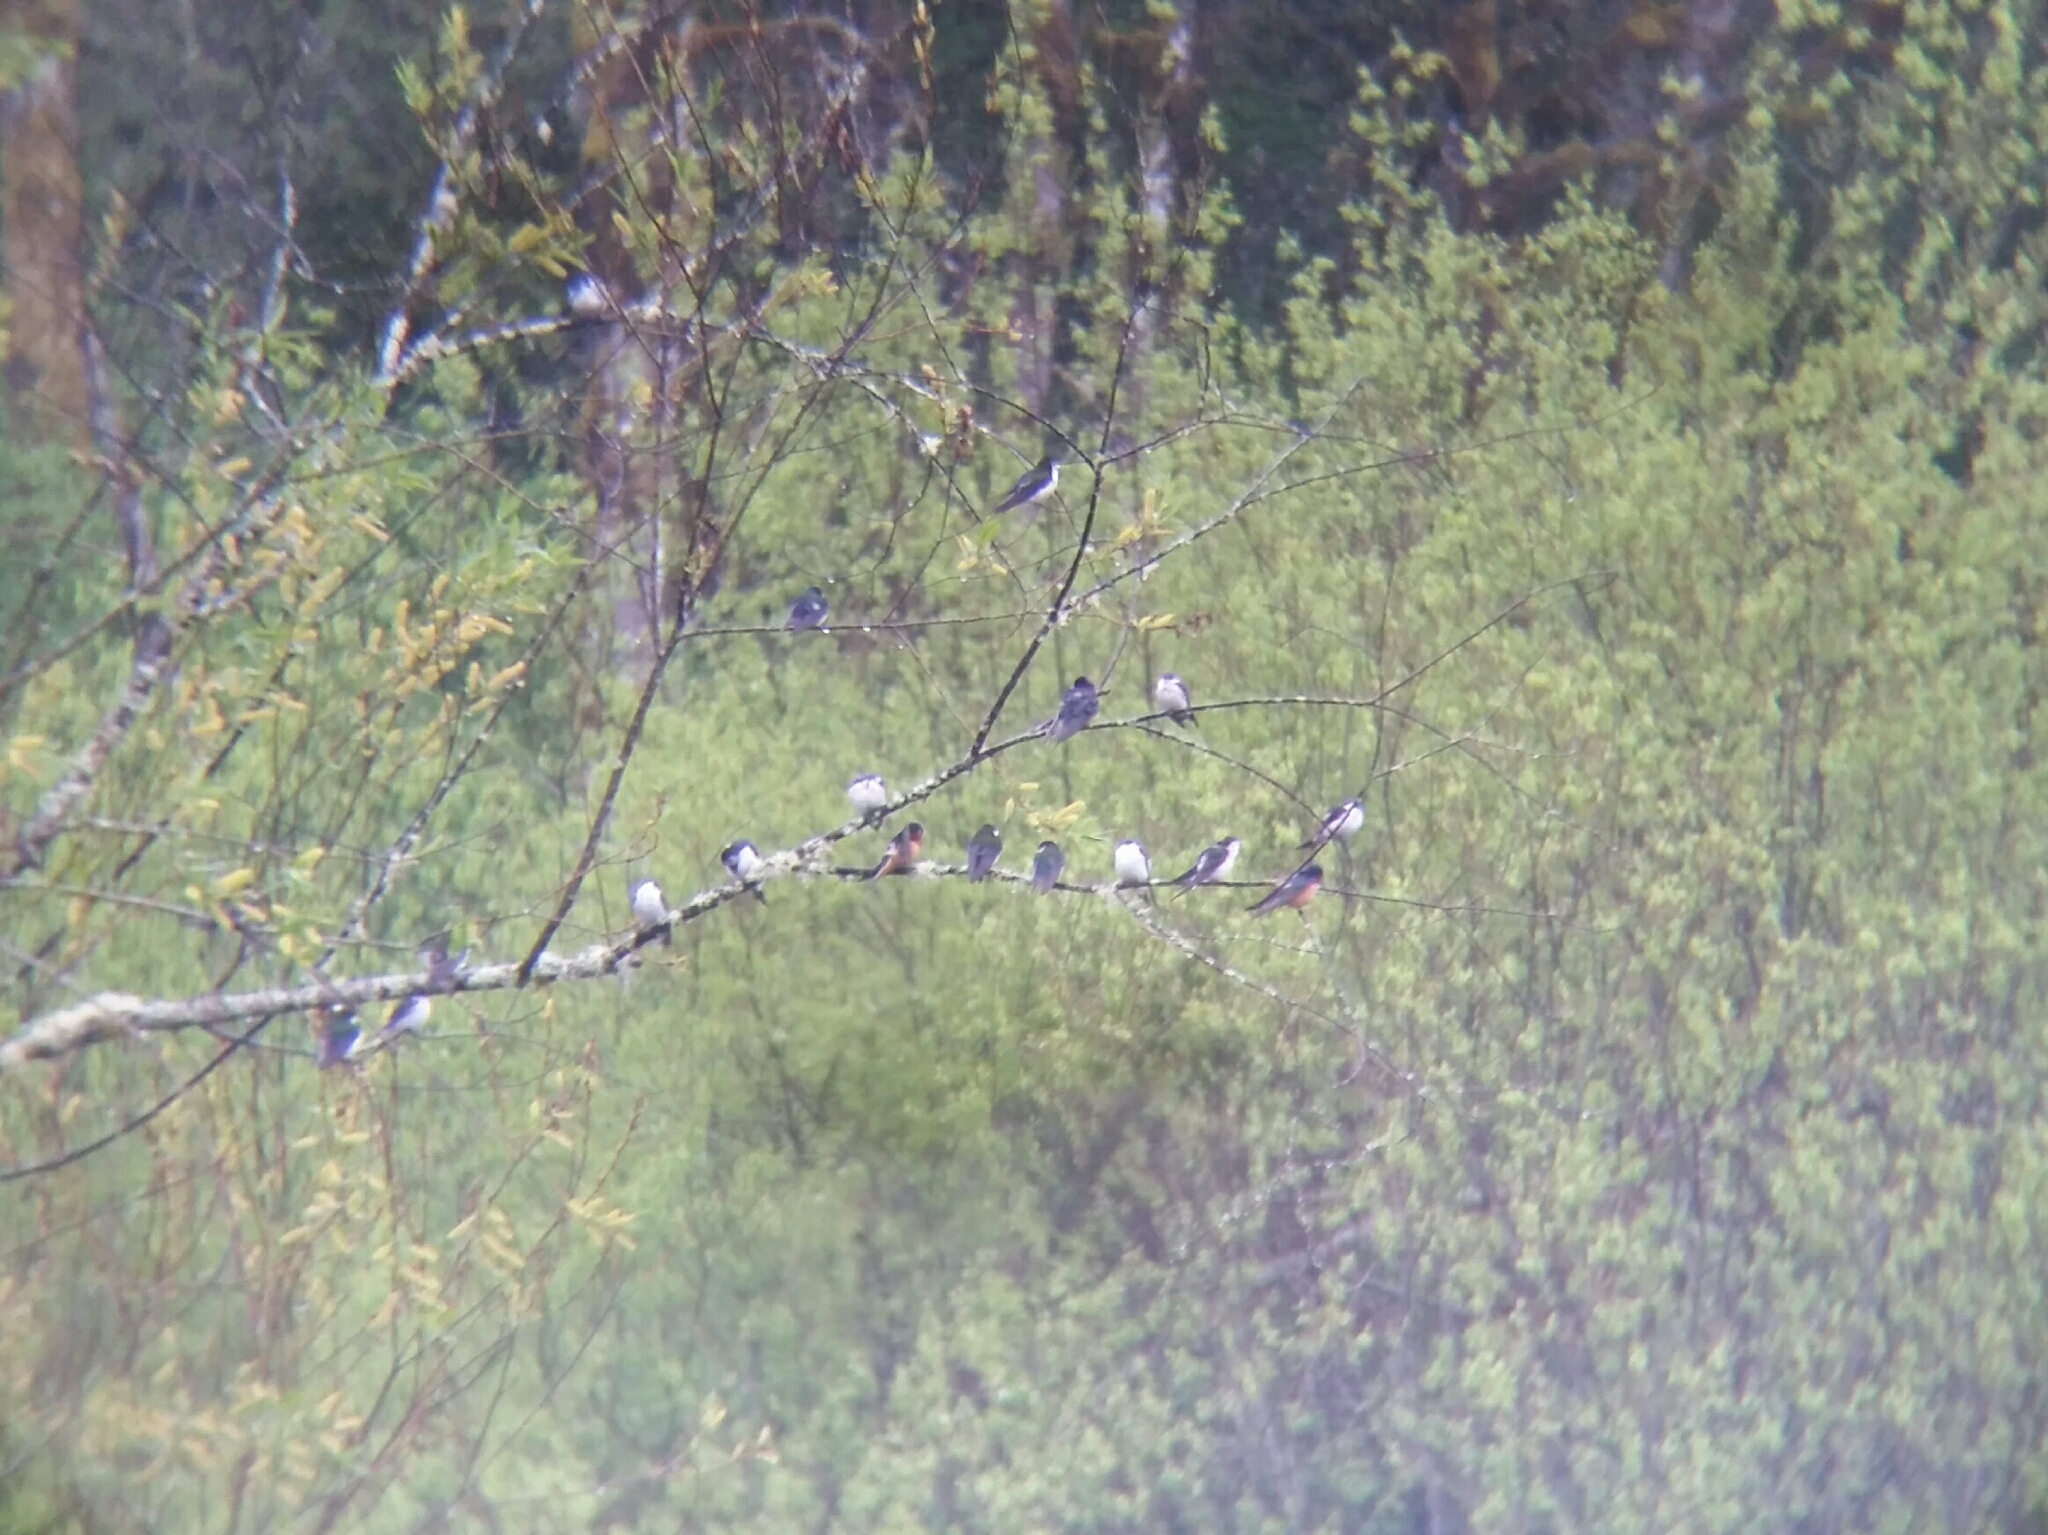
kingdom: Animalia
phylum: Chordata
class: Aves
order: Passeriformes
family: Hirundinidae
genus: Tachycineta
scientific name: Tachycineta thalassina
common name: Violet-green swallow
